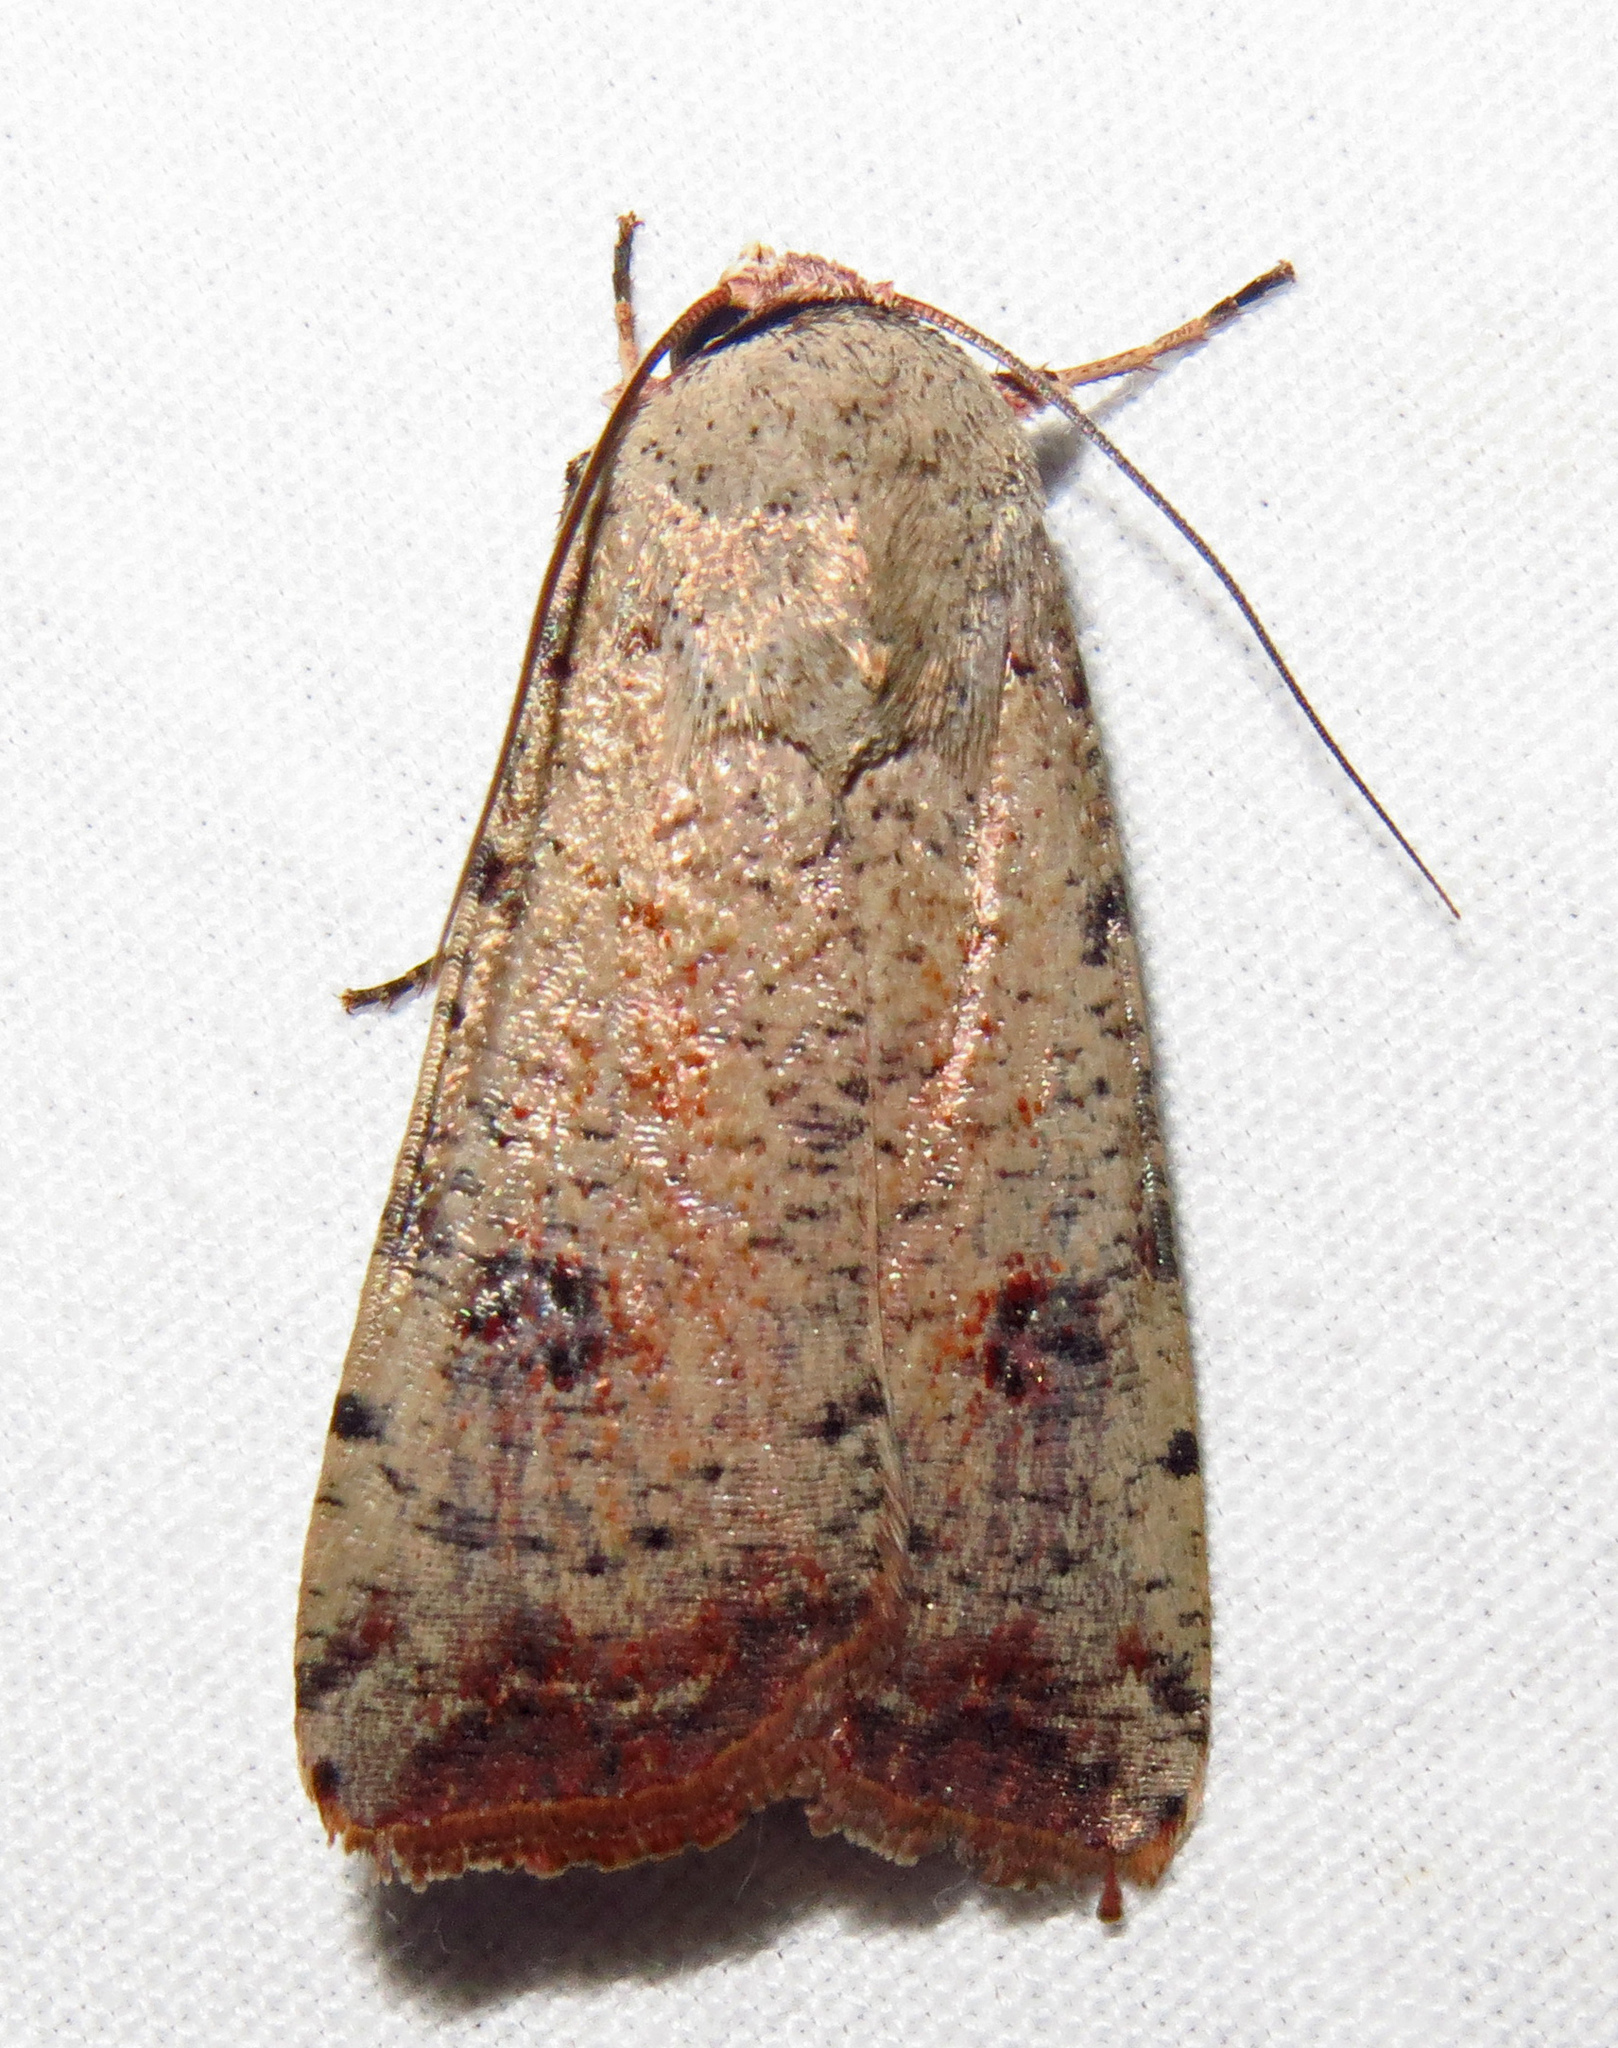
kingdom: Animalia
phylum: Arthropoda
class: Insecta
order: Lepidoptera
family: Noctuidae
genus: Anicla
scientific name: Anicla infecta
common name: Green cutworm
